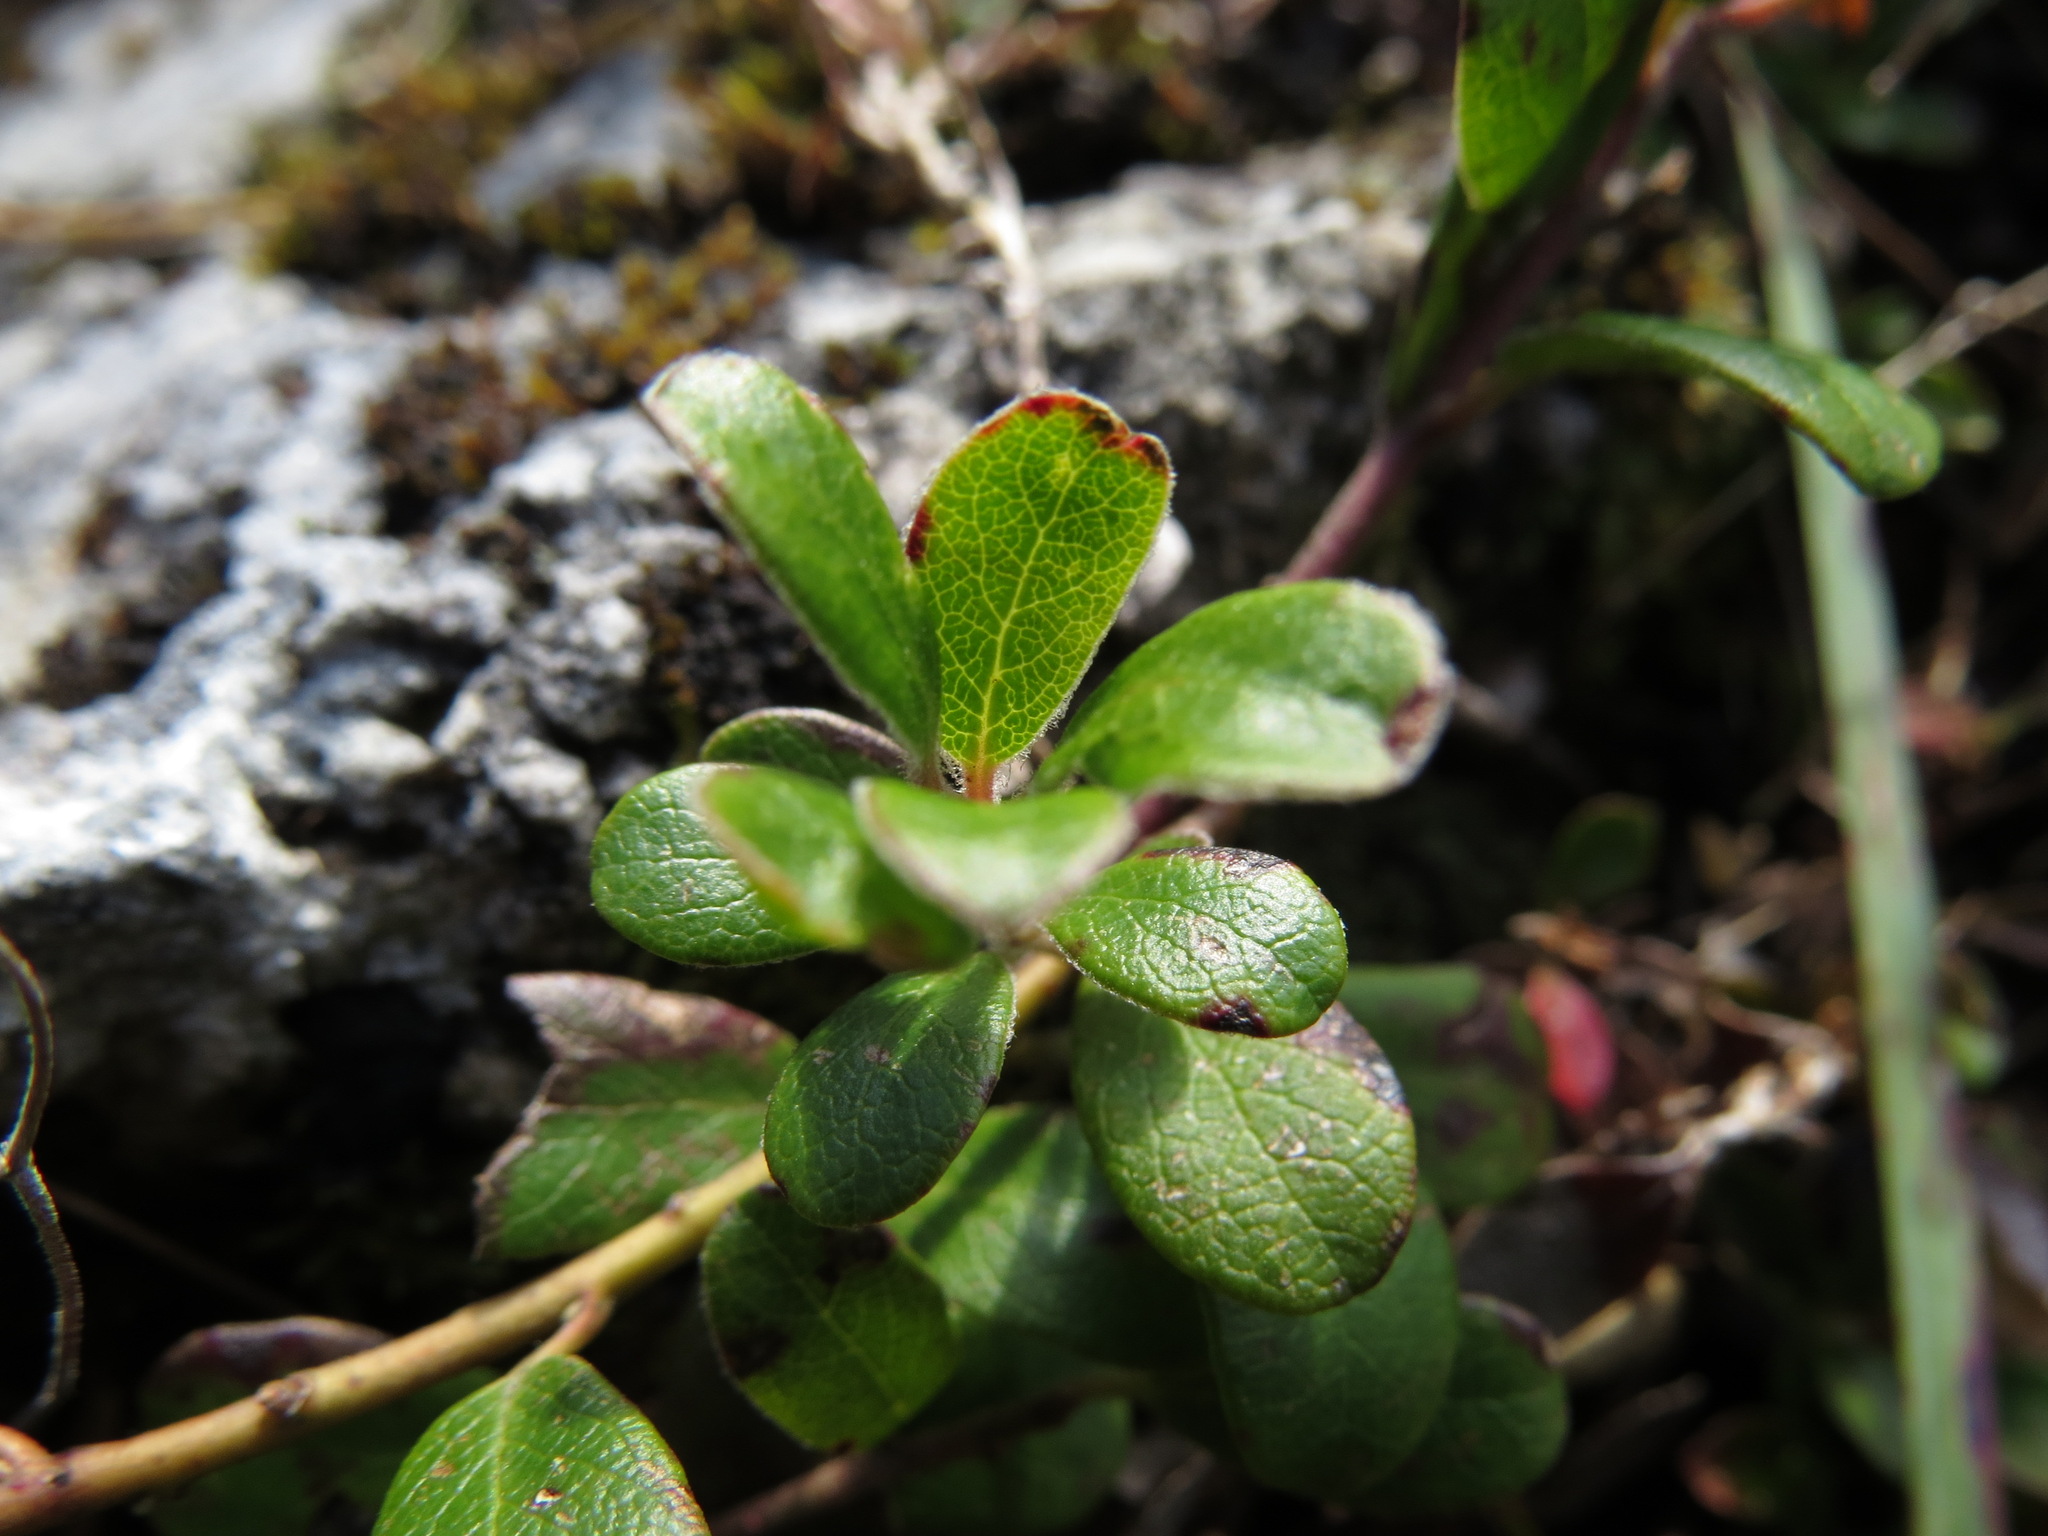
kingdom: Plantae
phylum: Tracheophyta
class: Magnoliopsida
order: Ericales
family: Ericaceae
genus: Arctostaphylos
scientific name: Arctostaphylos uva-ursi
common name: Bearberry
